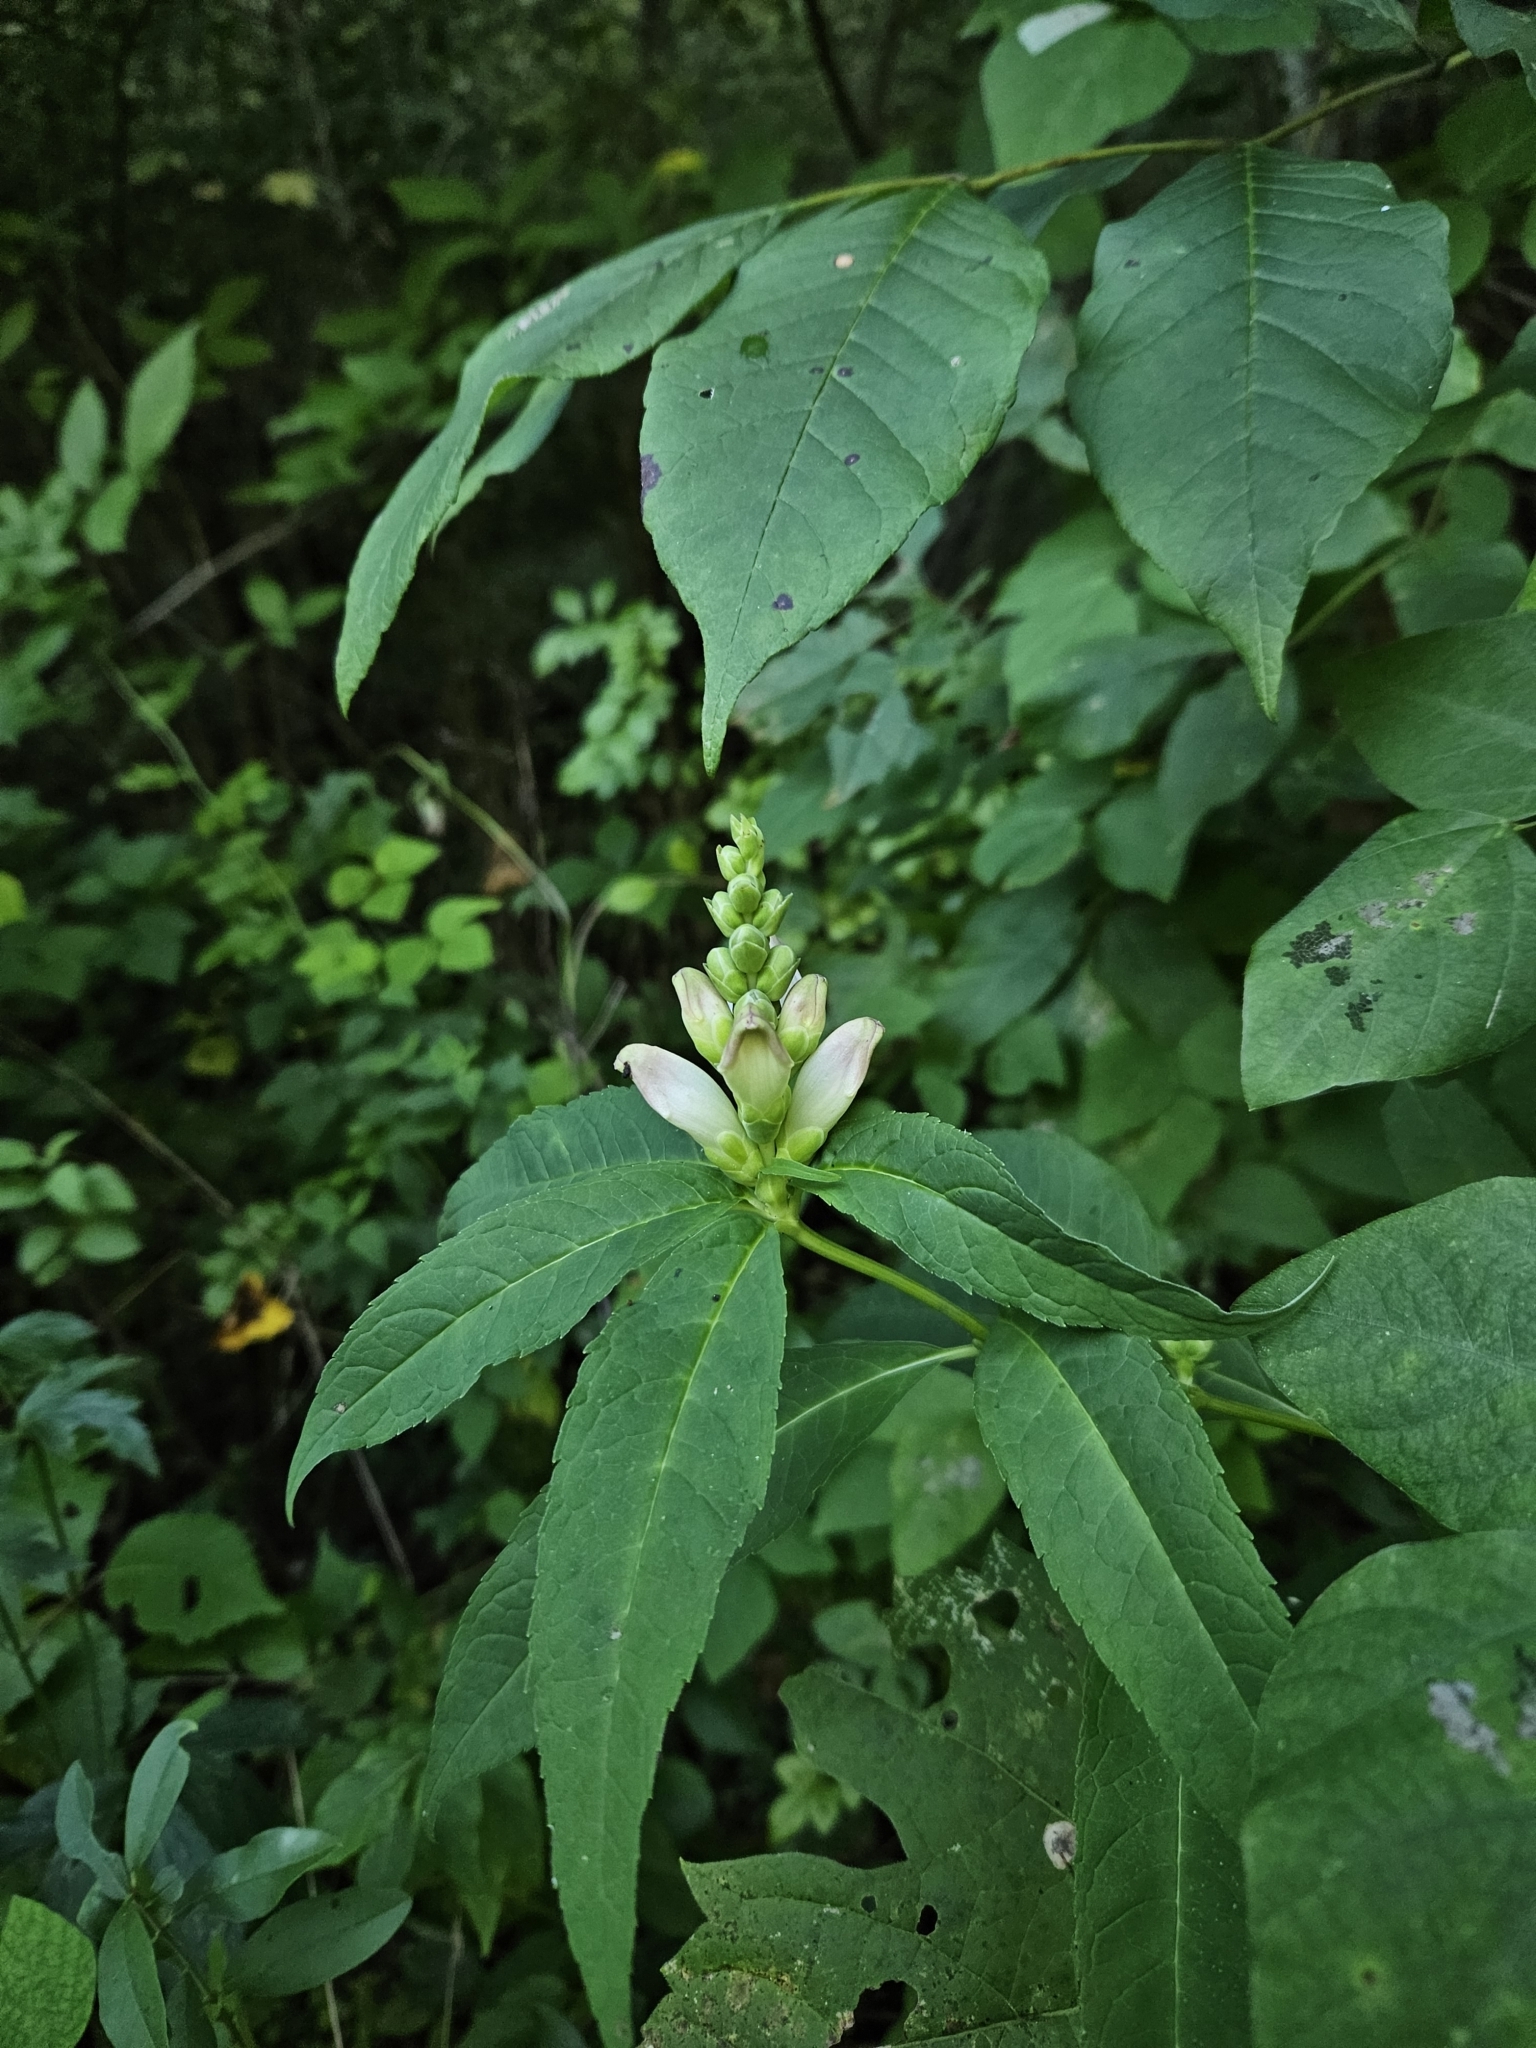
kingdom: Plantae
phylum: Tracheophyta
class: Magnoliopsida
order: Lamiales
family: Plantaginaceae
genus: Chelone
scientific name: Chelone glabra
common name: Snakehead
